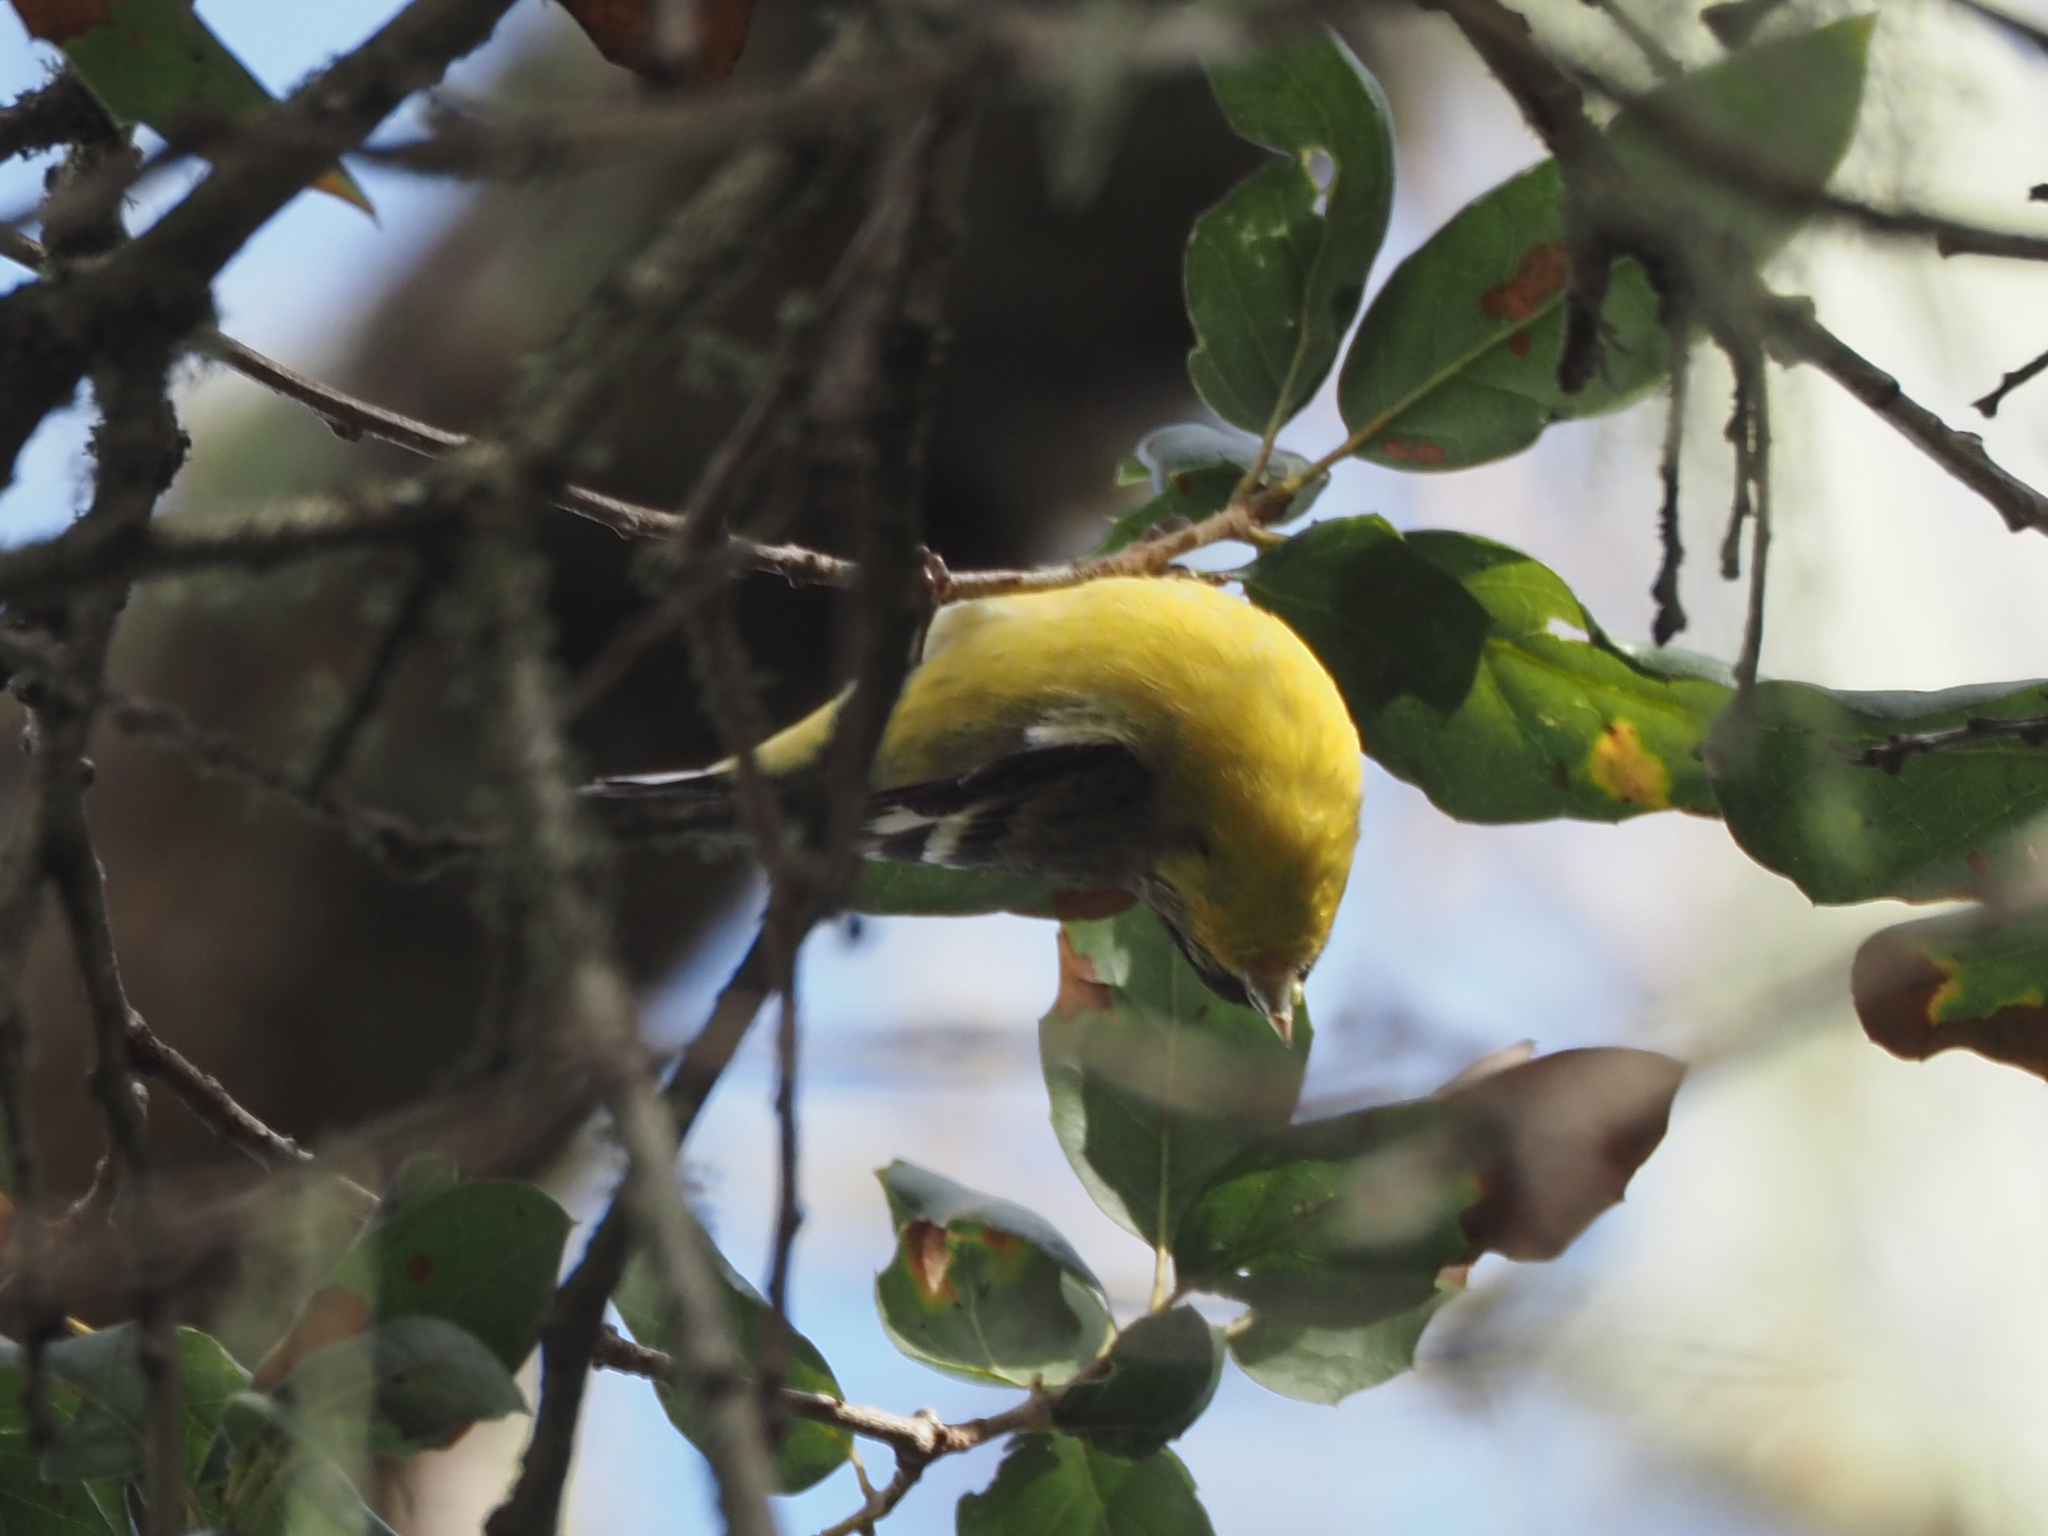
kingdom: Animalia
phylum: Chordata
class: Aves
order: Passeriformes
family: Fringillidae
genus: Spinus
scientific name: Spinus psaltria
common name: Lesser goldfinch
